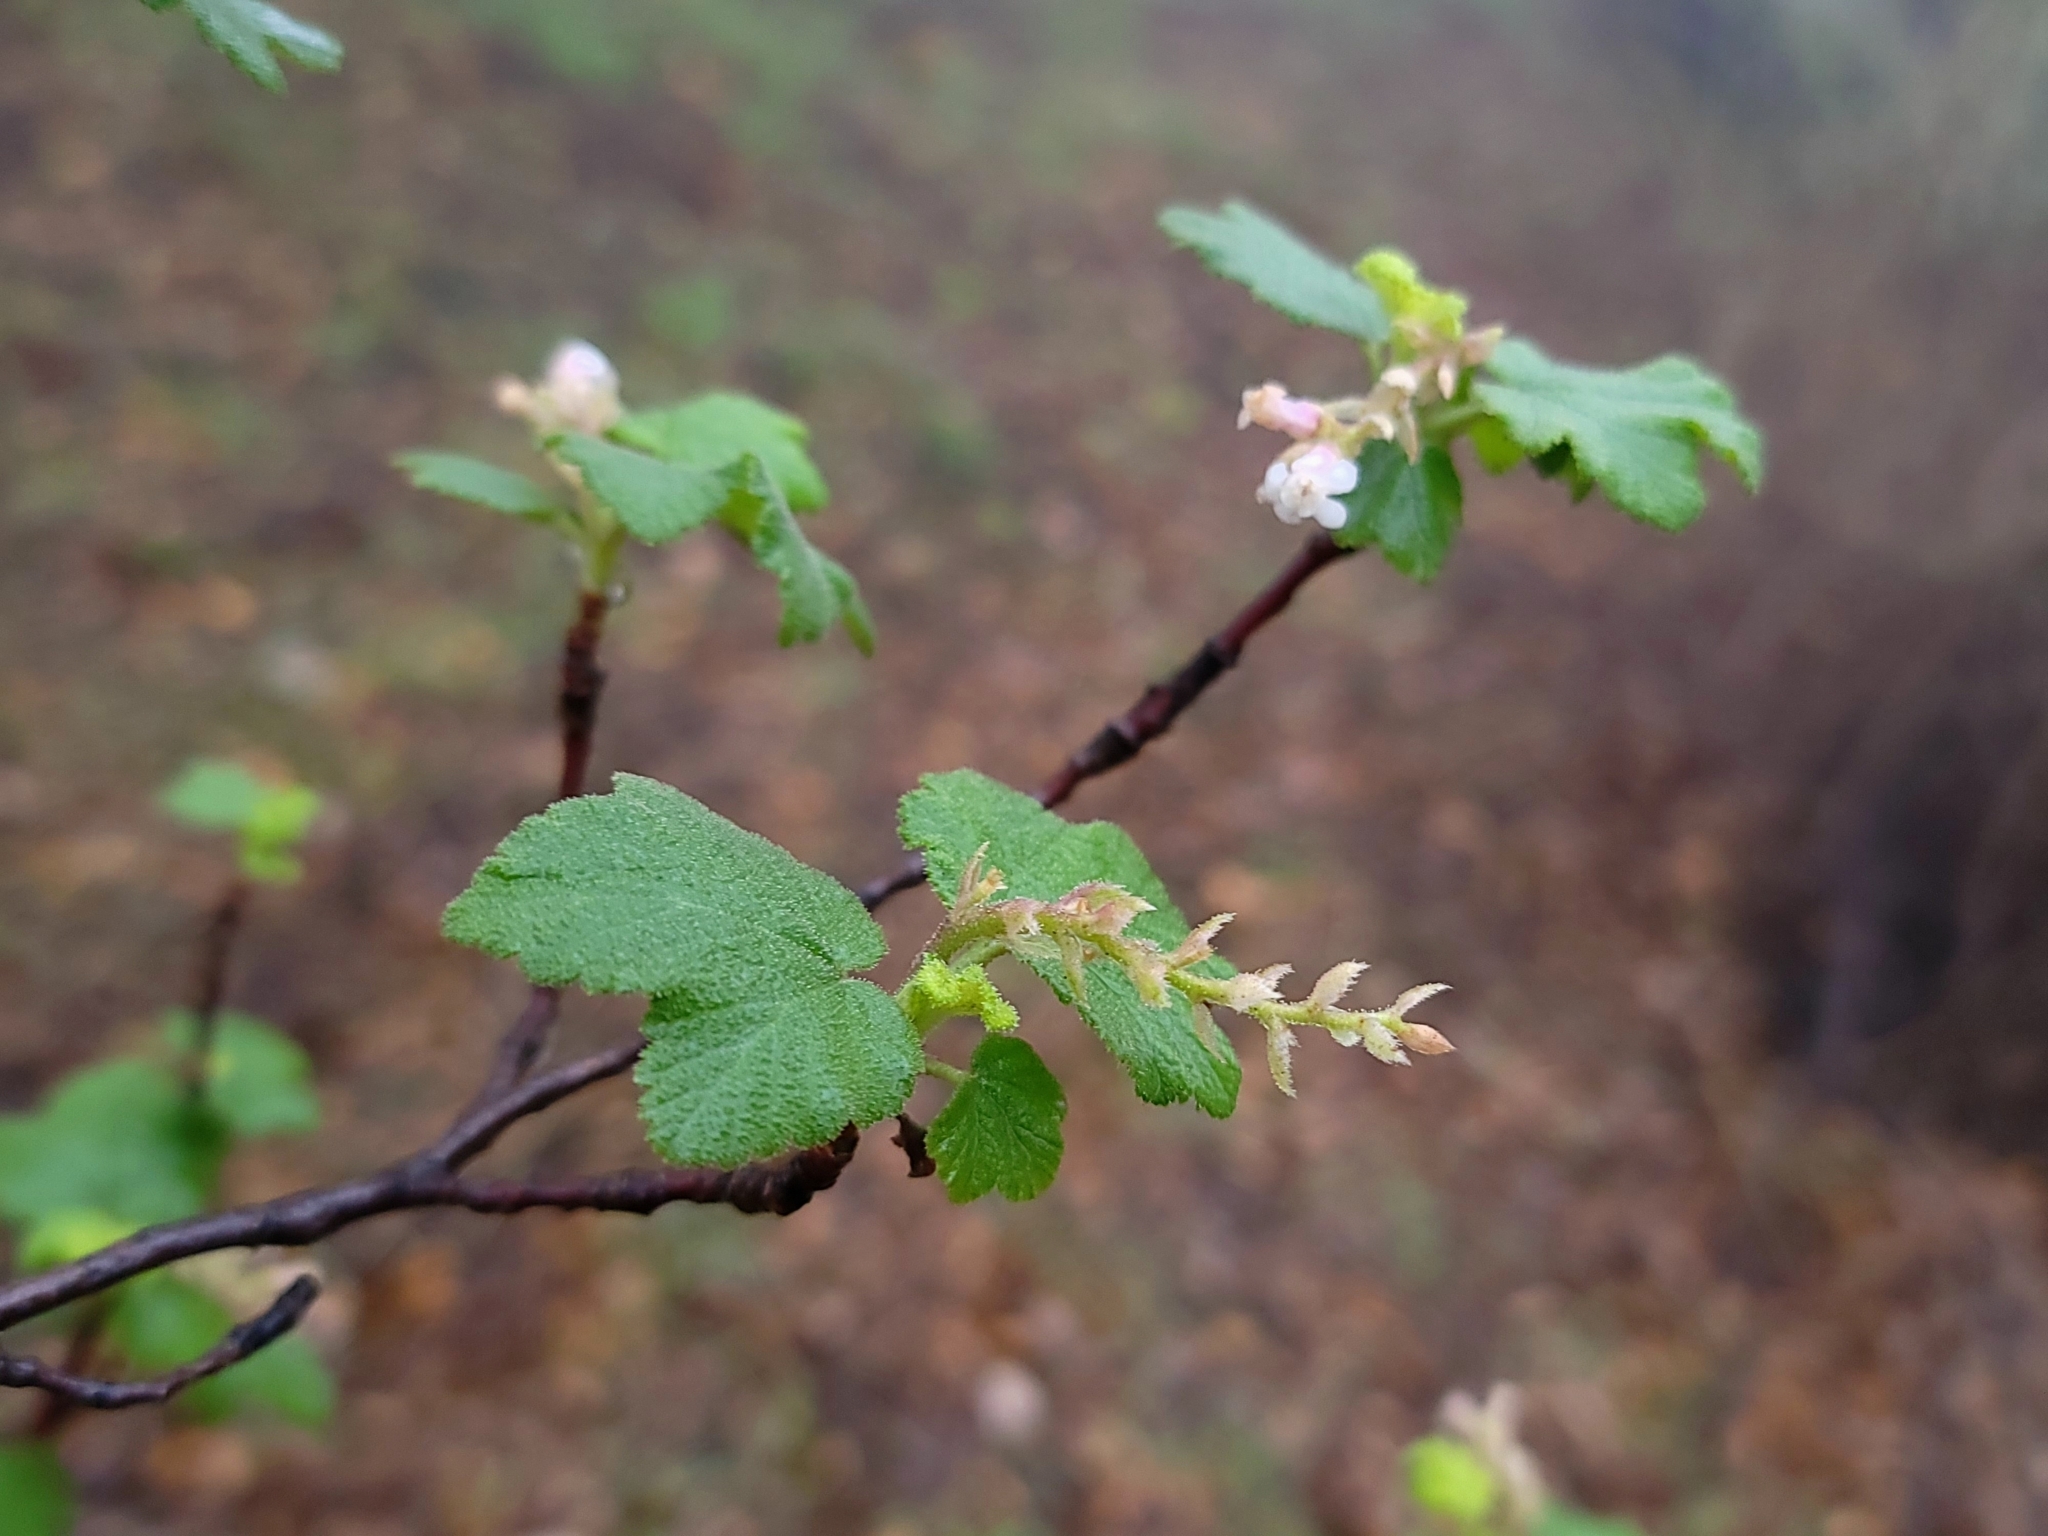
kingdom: Plantae
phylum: Tracheophyta
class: Magnoliopsida
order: Saxifragales
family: Grossulariaceae
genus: Ribes
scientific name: Ribes malvaceum
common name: Chaparral currant
